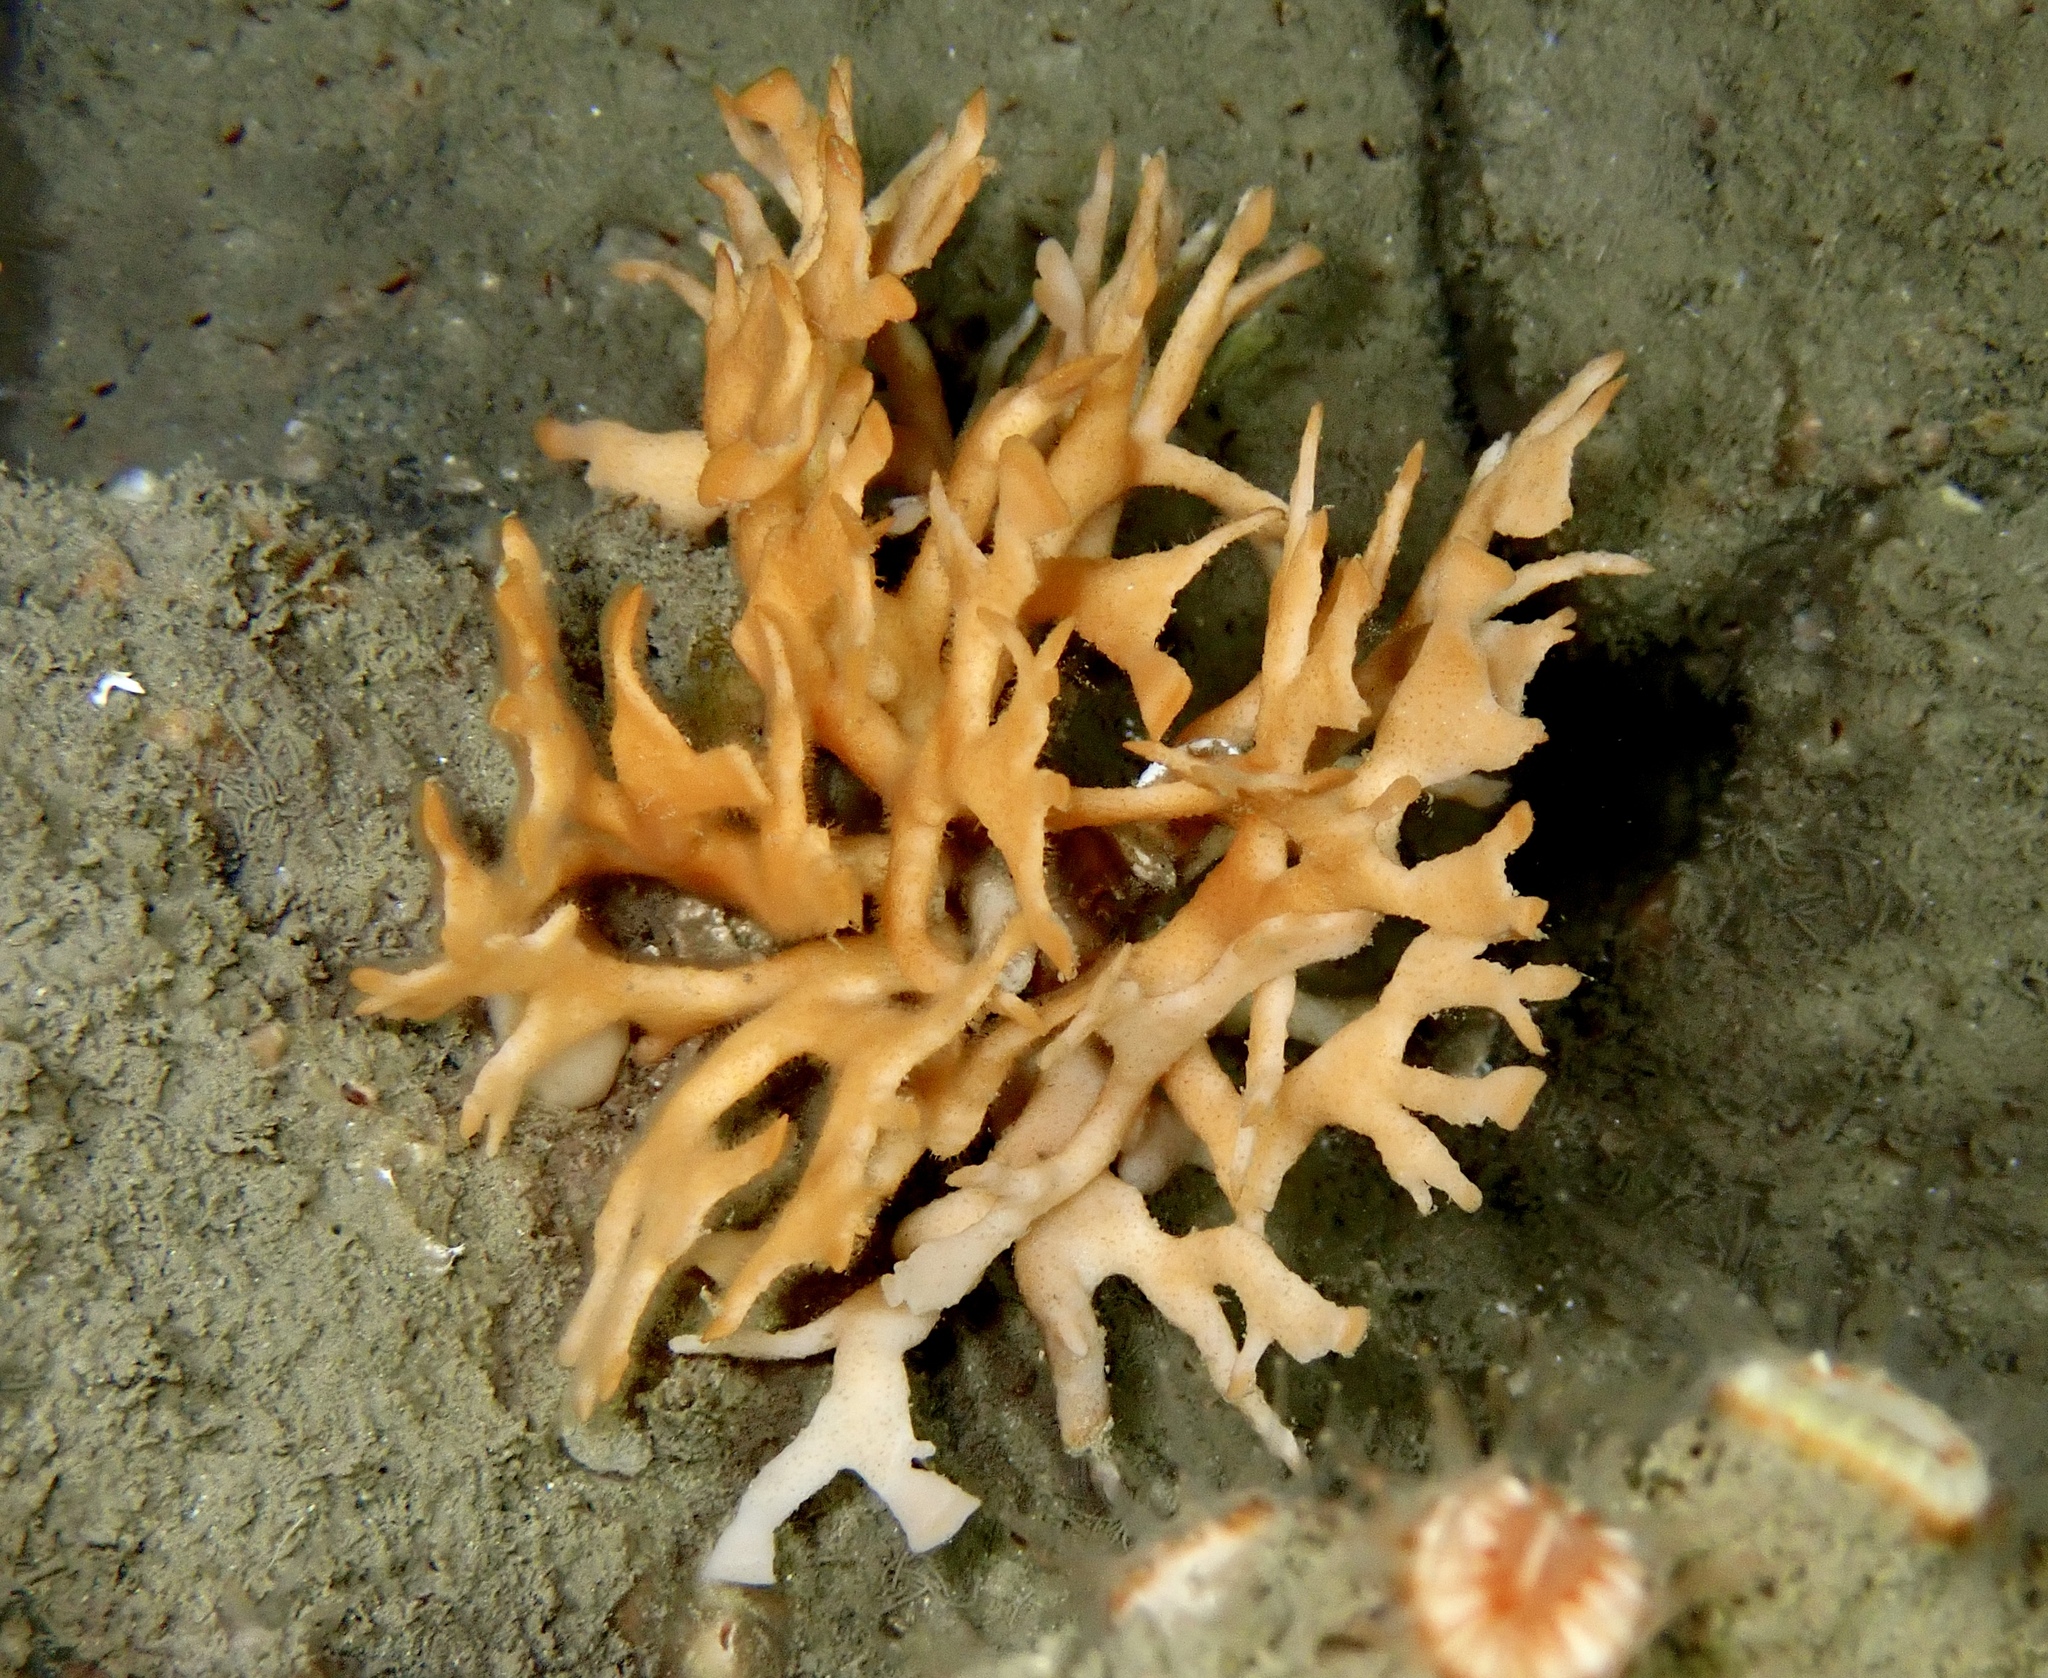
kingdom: Animalia
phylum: Bryozoa
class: Gymnolaemata
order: Cheilostomatida
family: Bryocryptellidae
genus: Porella
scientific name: Porella compressa
